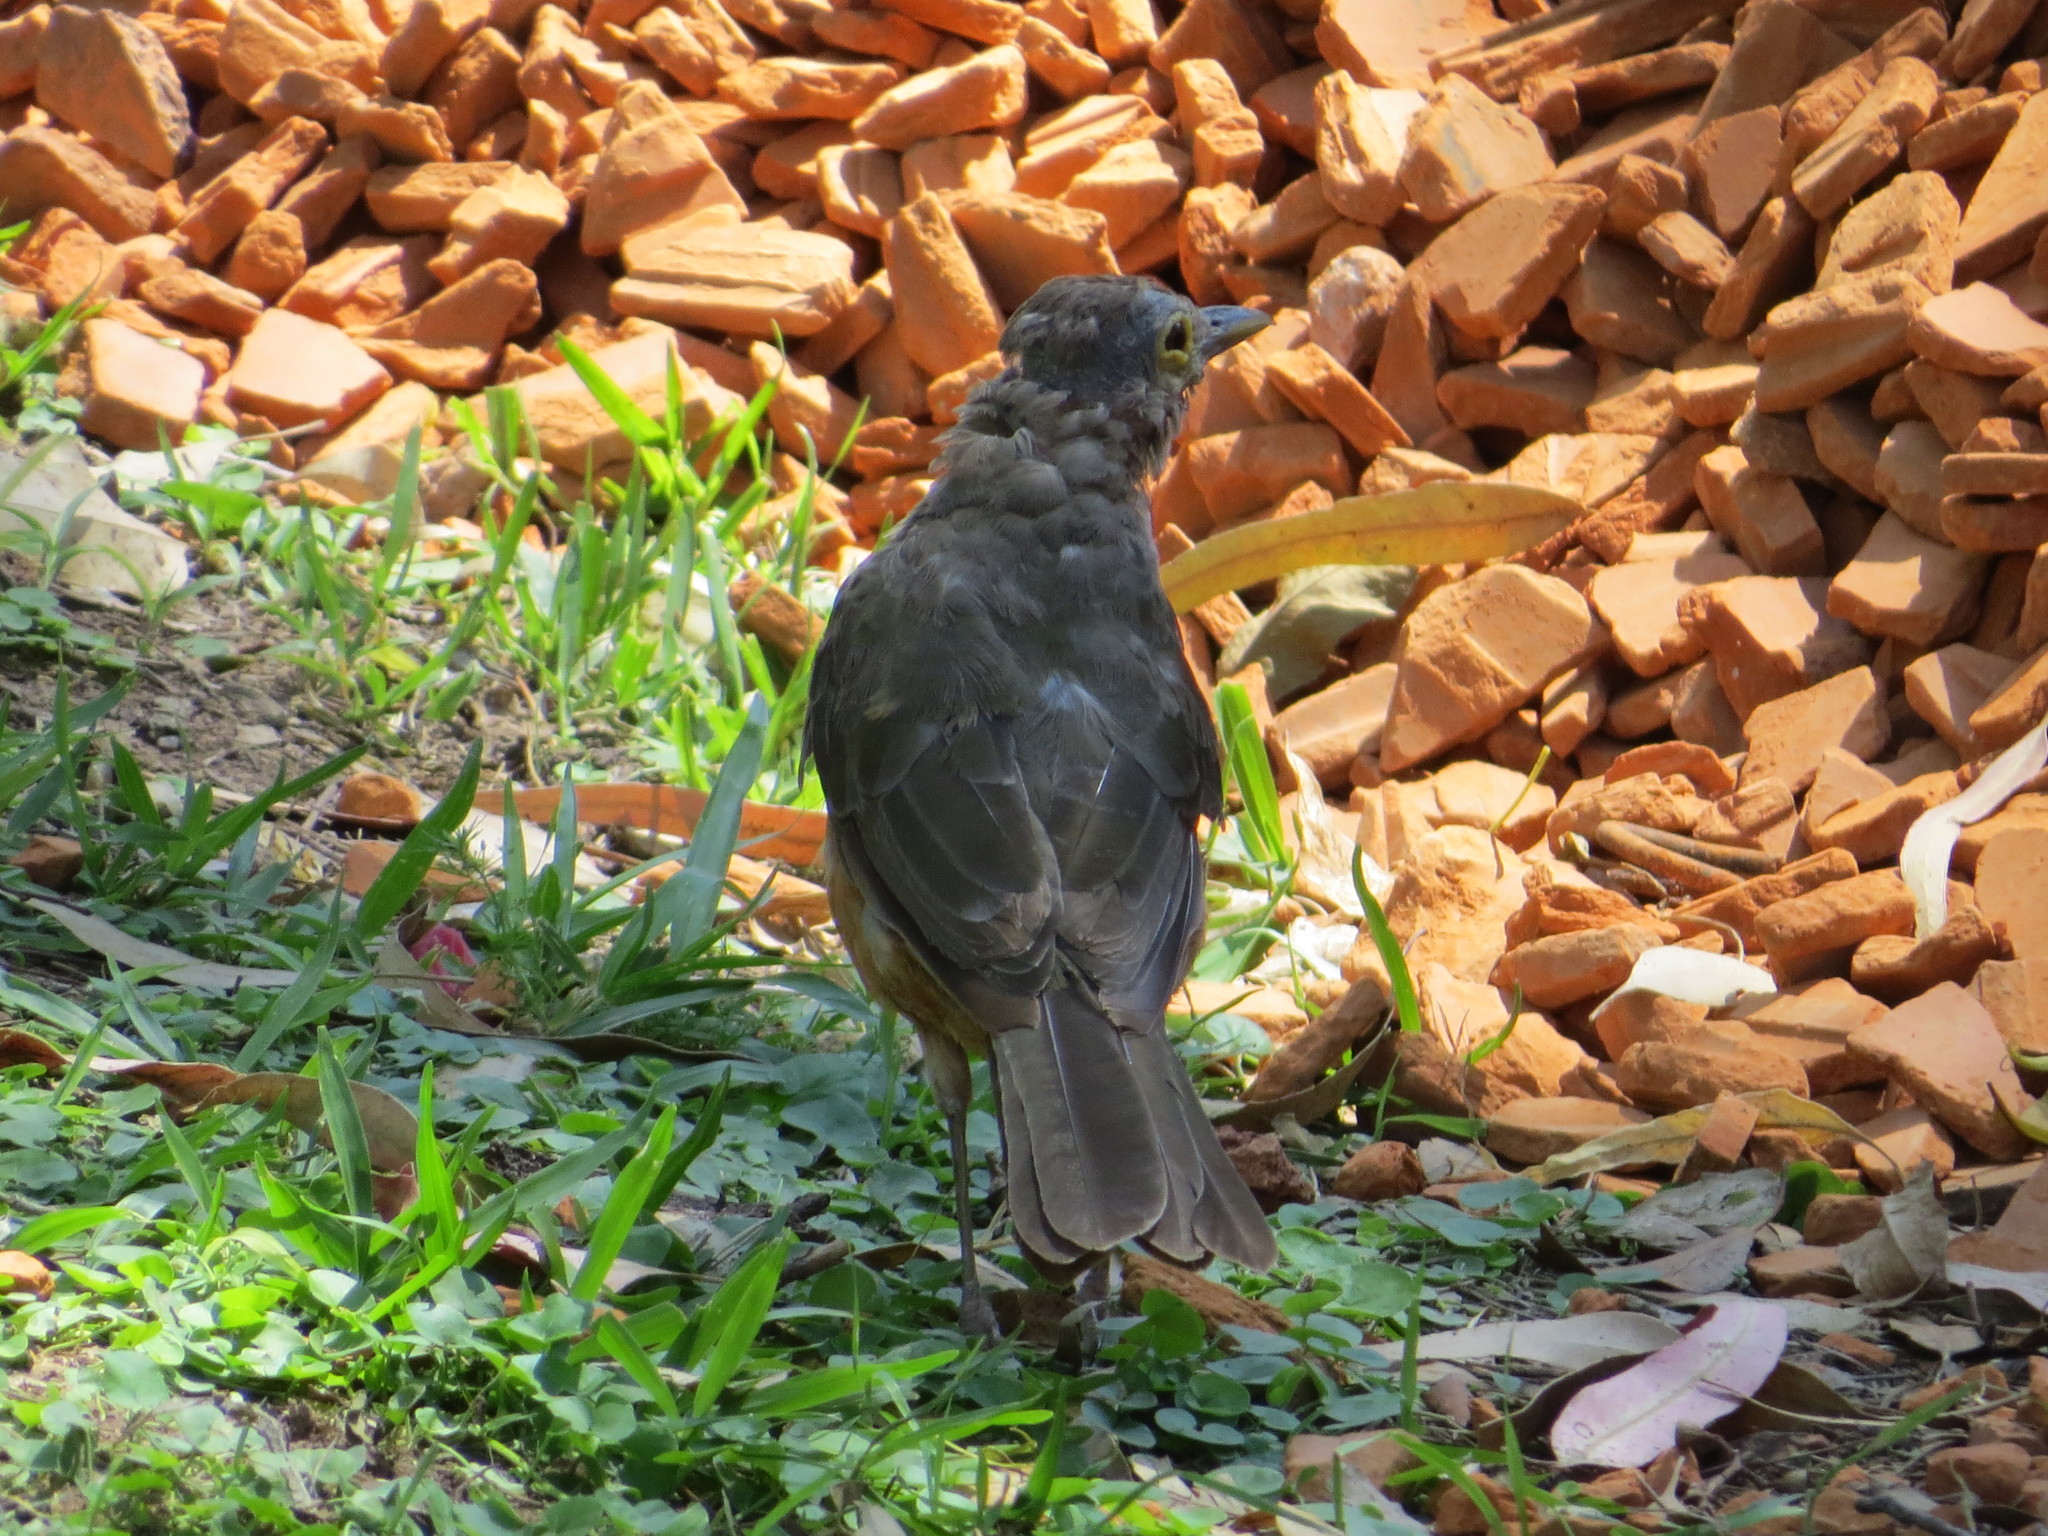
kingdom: Animalia
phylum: Chordata
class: Aves
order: Passeriformes
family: Turdidae
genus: Turdus
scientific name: Turdus rufiventris
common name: Rufous-bellied thrush
